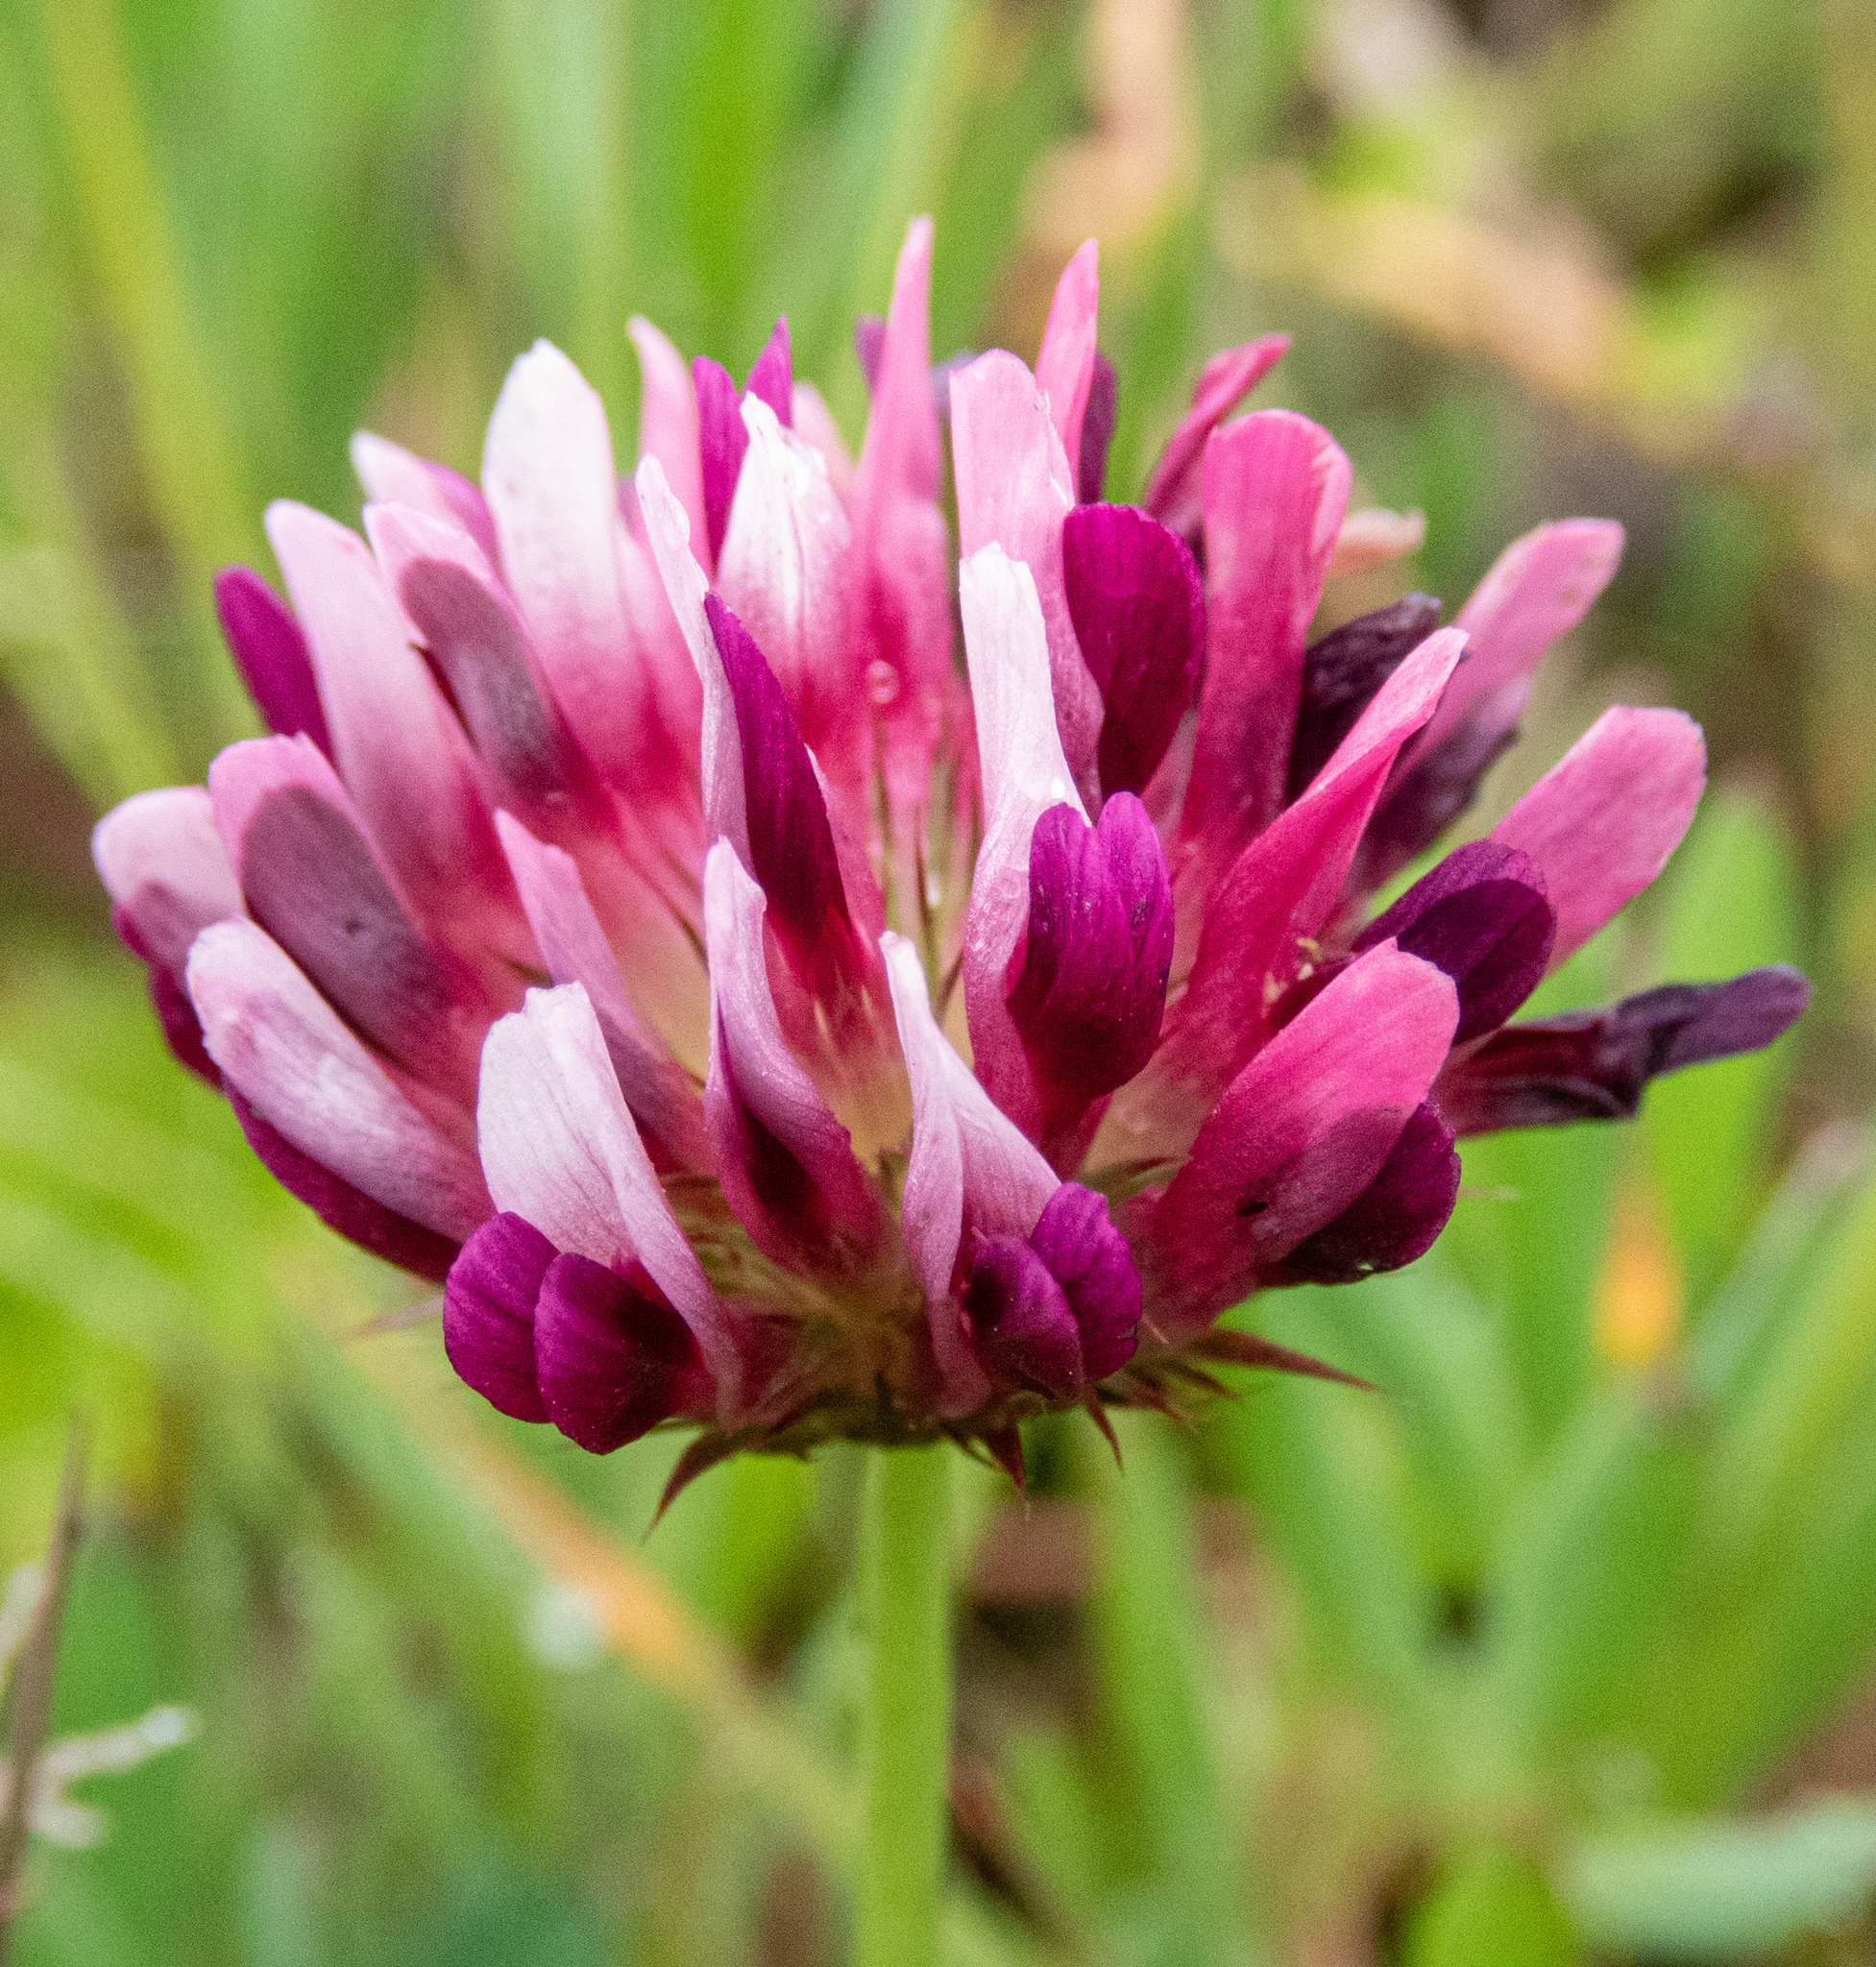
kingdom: Plantae
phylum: Tracheophyta
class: Magnoliopsida
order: Fabales
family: Fabaceae
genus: Trifolium
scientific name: Trifolium wormskioldii
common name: Springbank clover
